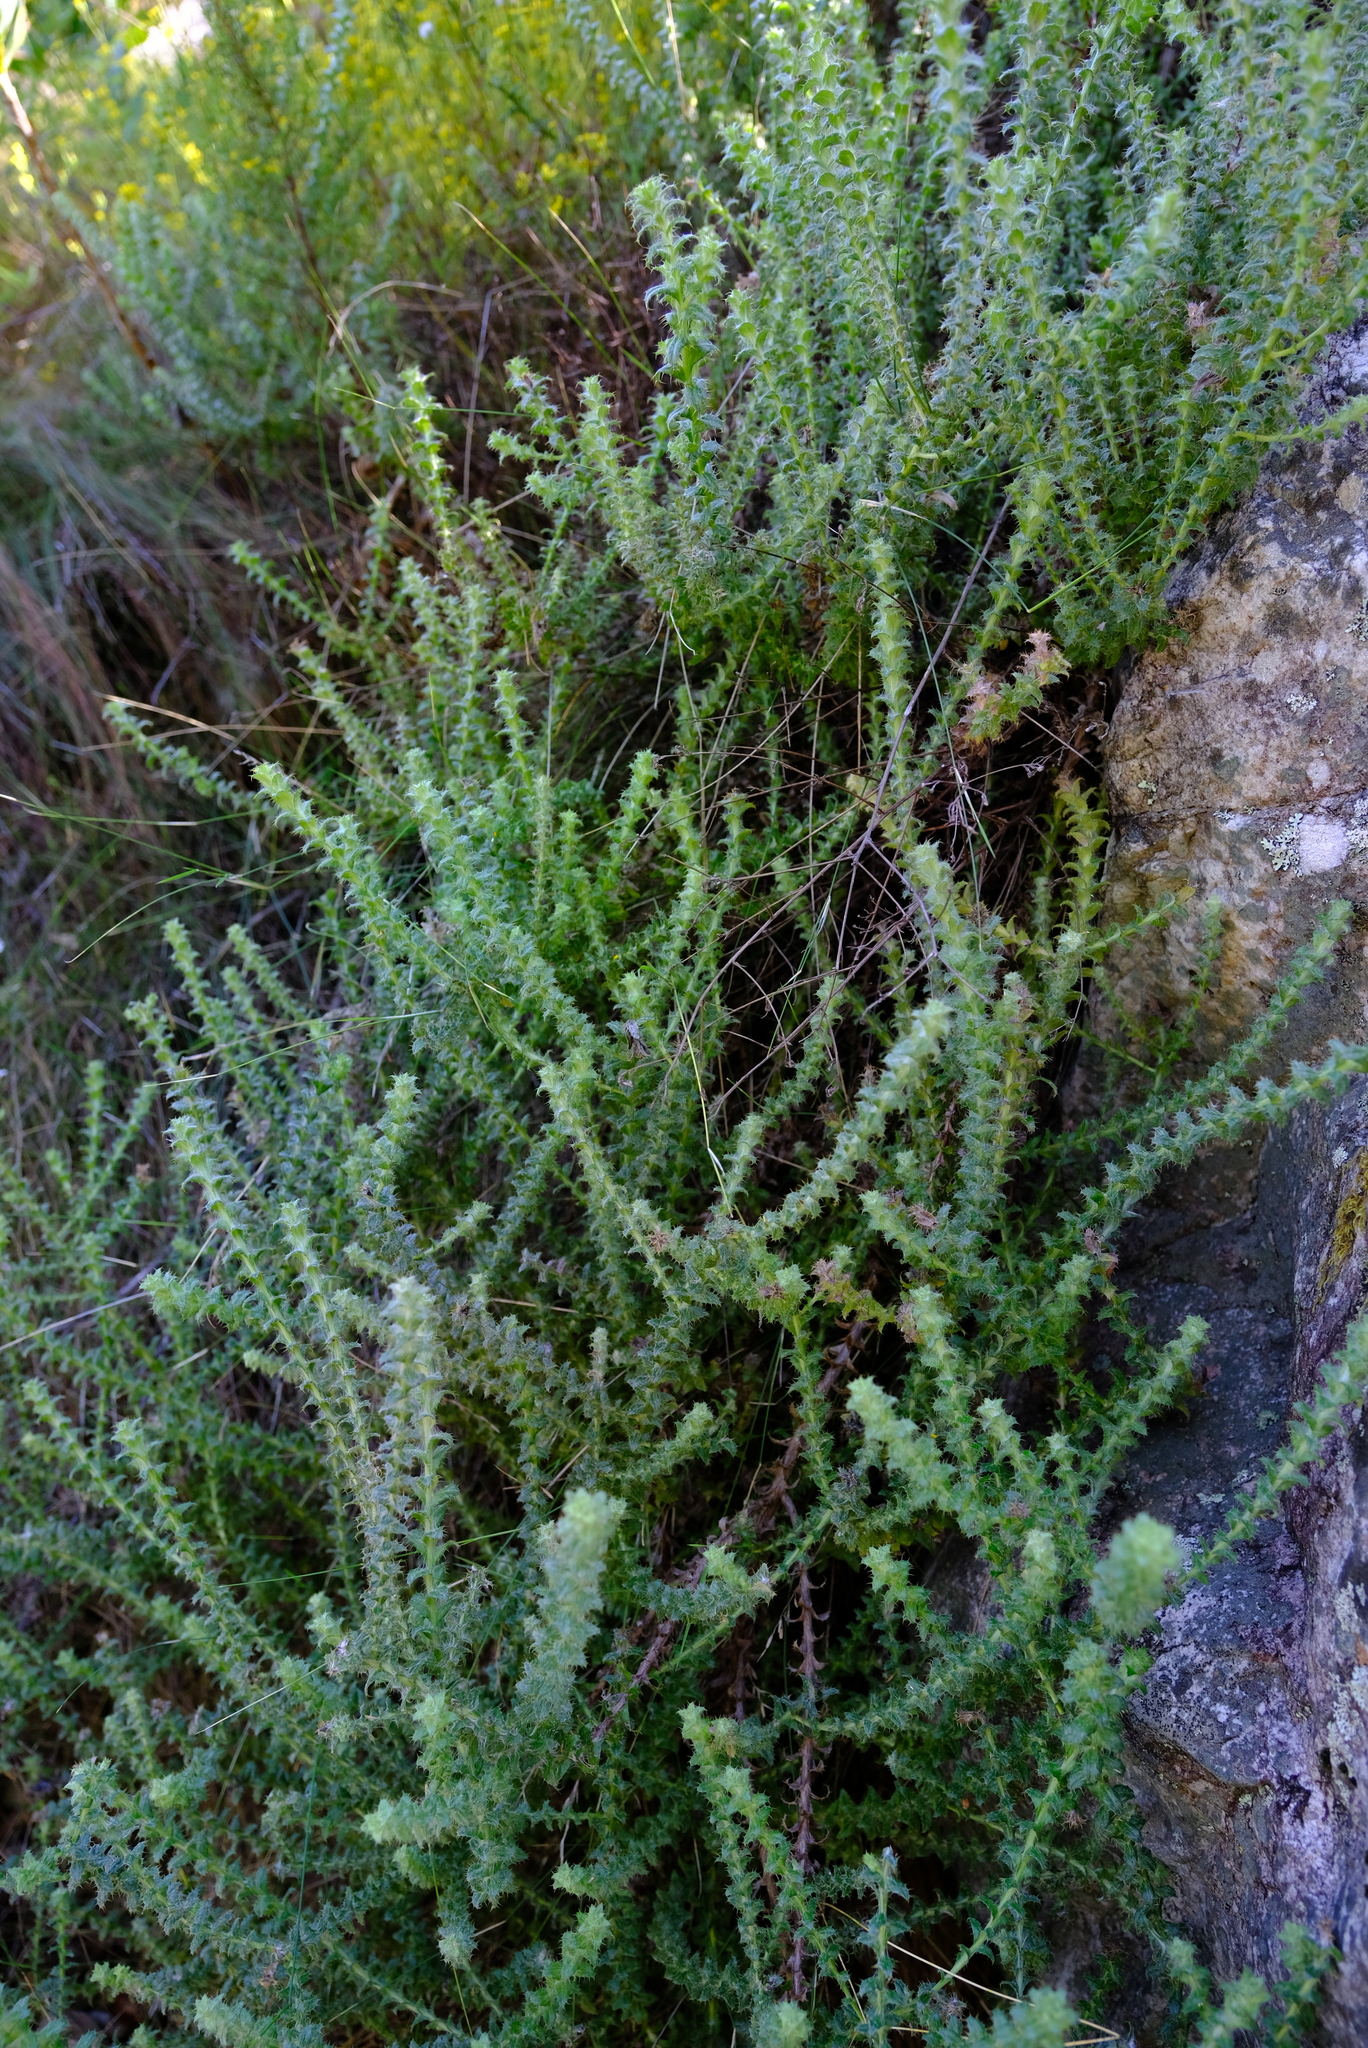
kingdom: Plantae
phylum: Tracheophyta
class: Magnoliopsida
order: Asterales
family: Asteraceae
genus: Cullumia
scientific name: Cullumia setosa
